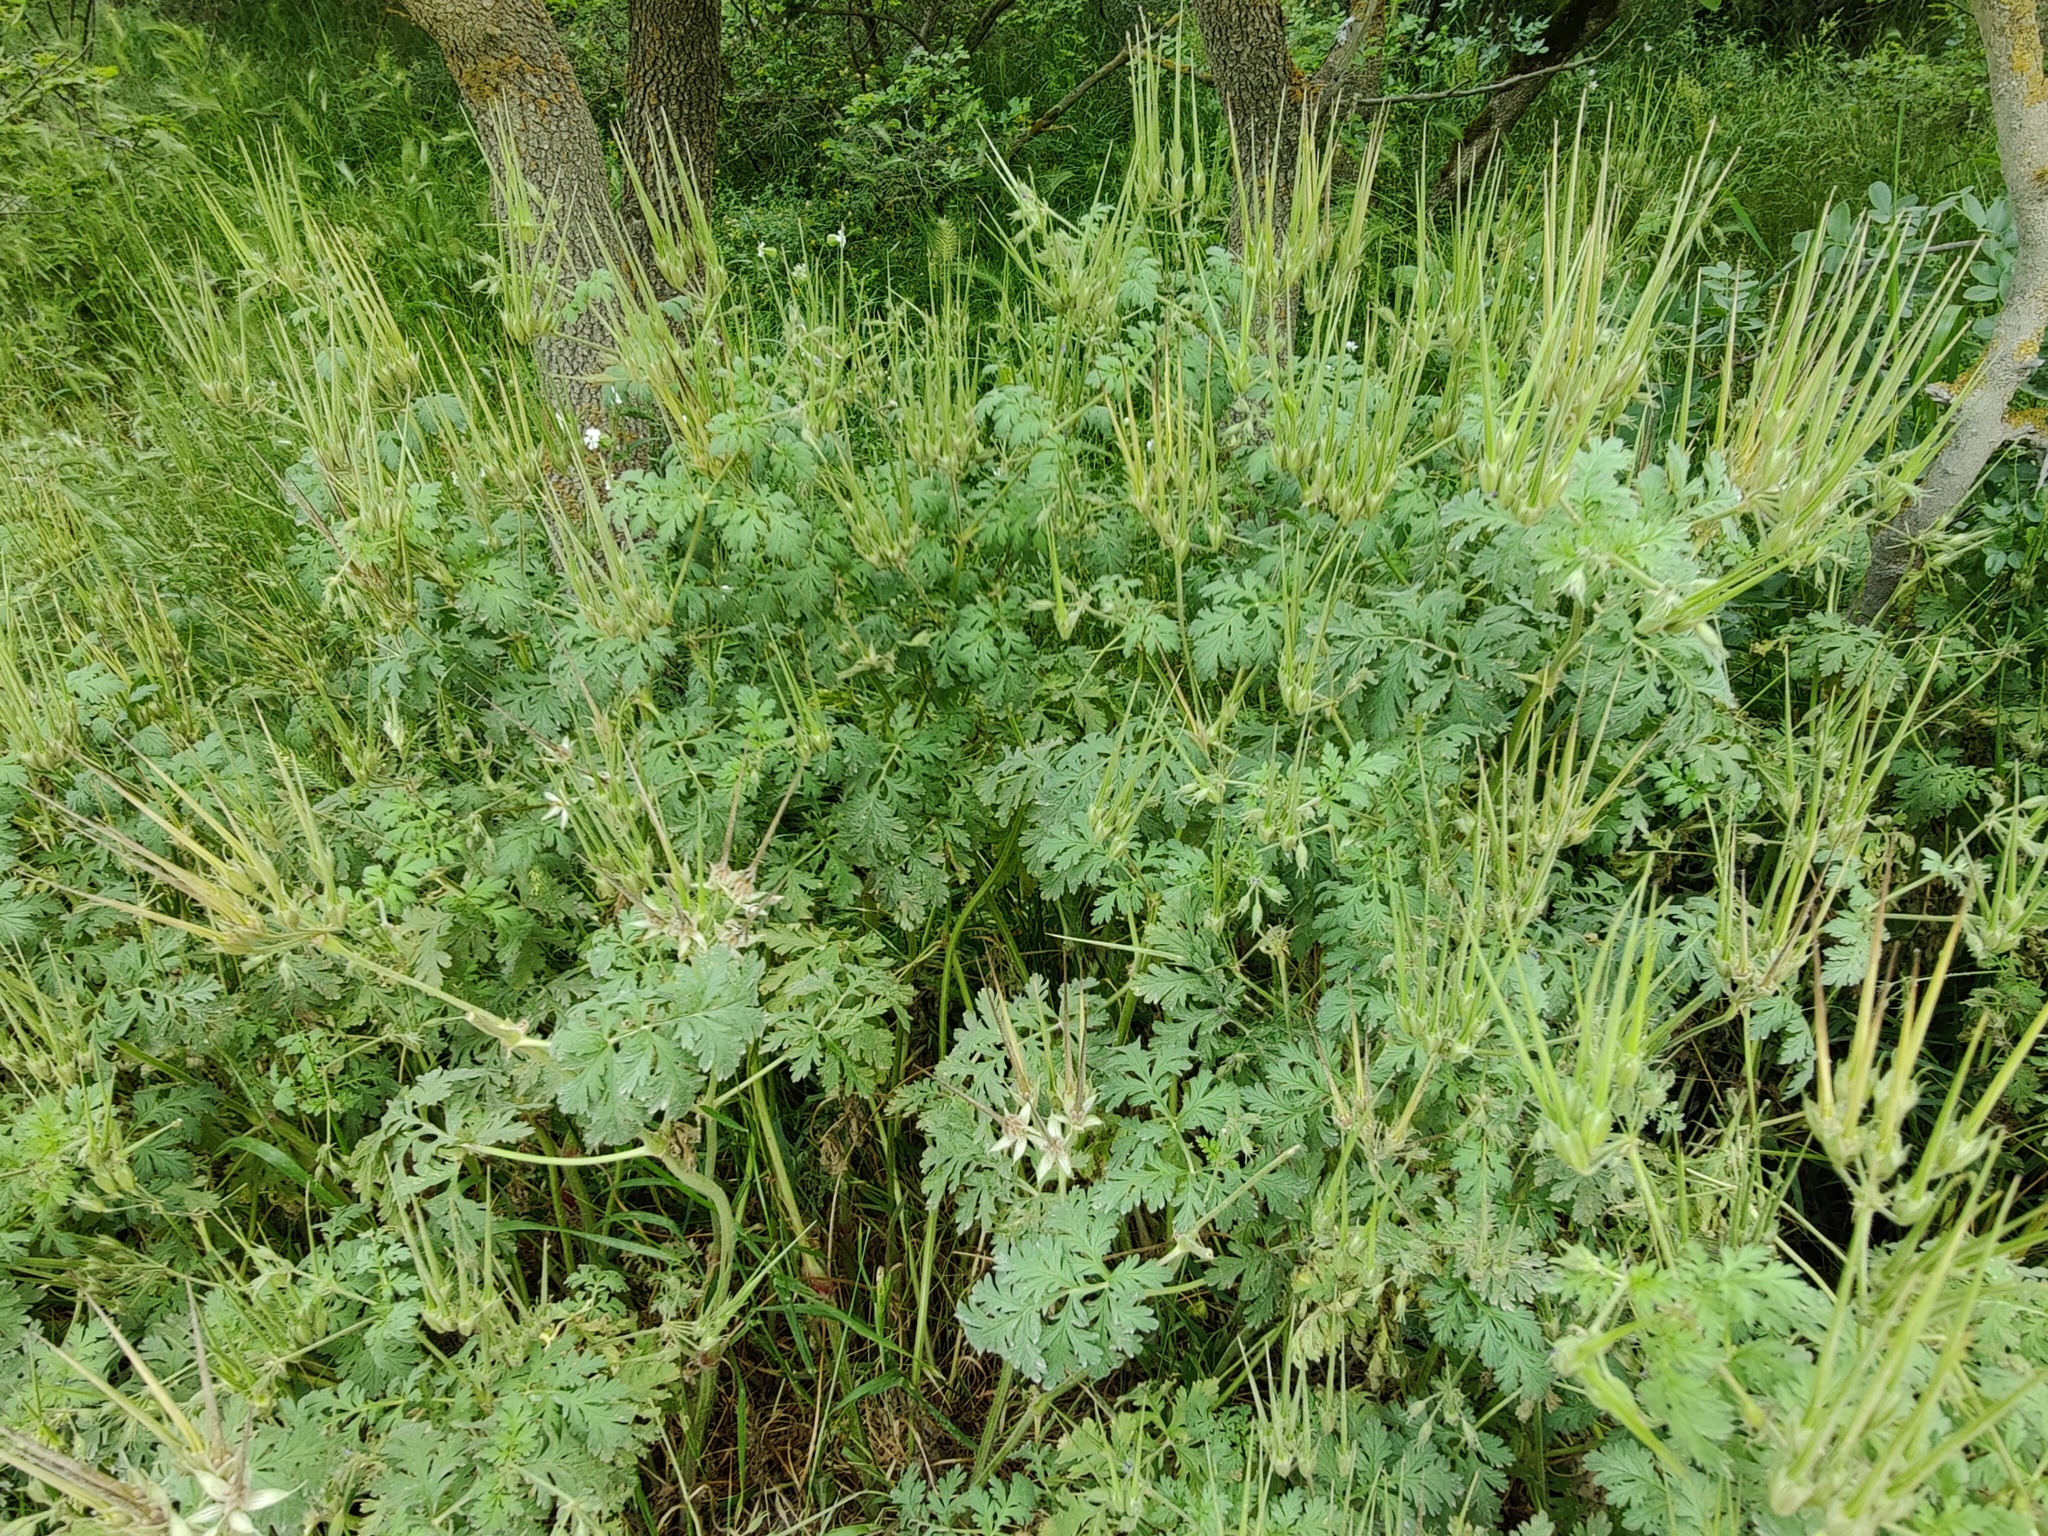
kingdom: Plantae
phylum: Tracheophyta
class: Magnoliopsida
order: Geraniales
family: Geraniaceae
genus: Erodium
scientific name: Erodium ciconium
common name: Common stork's bill
